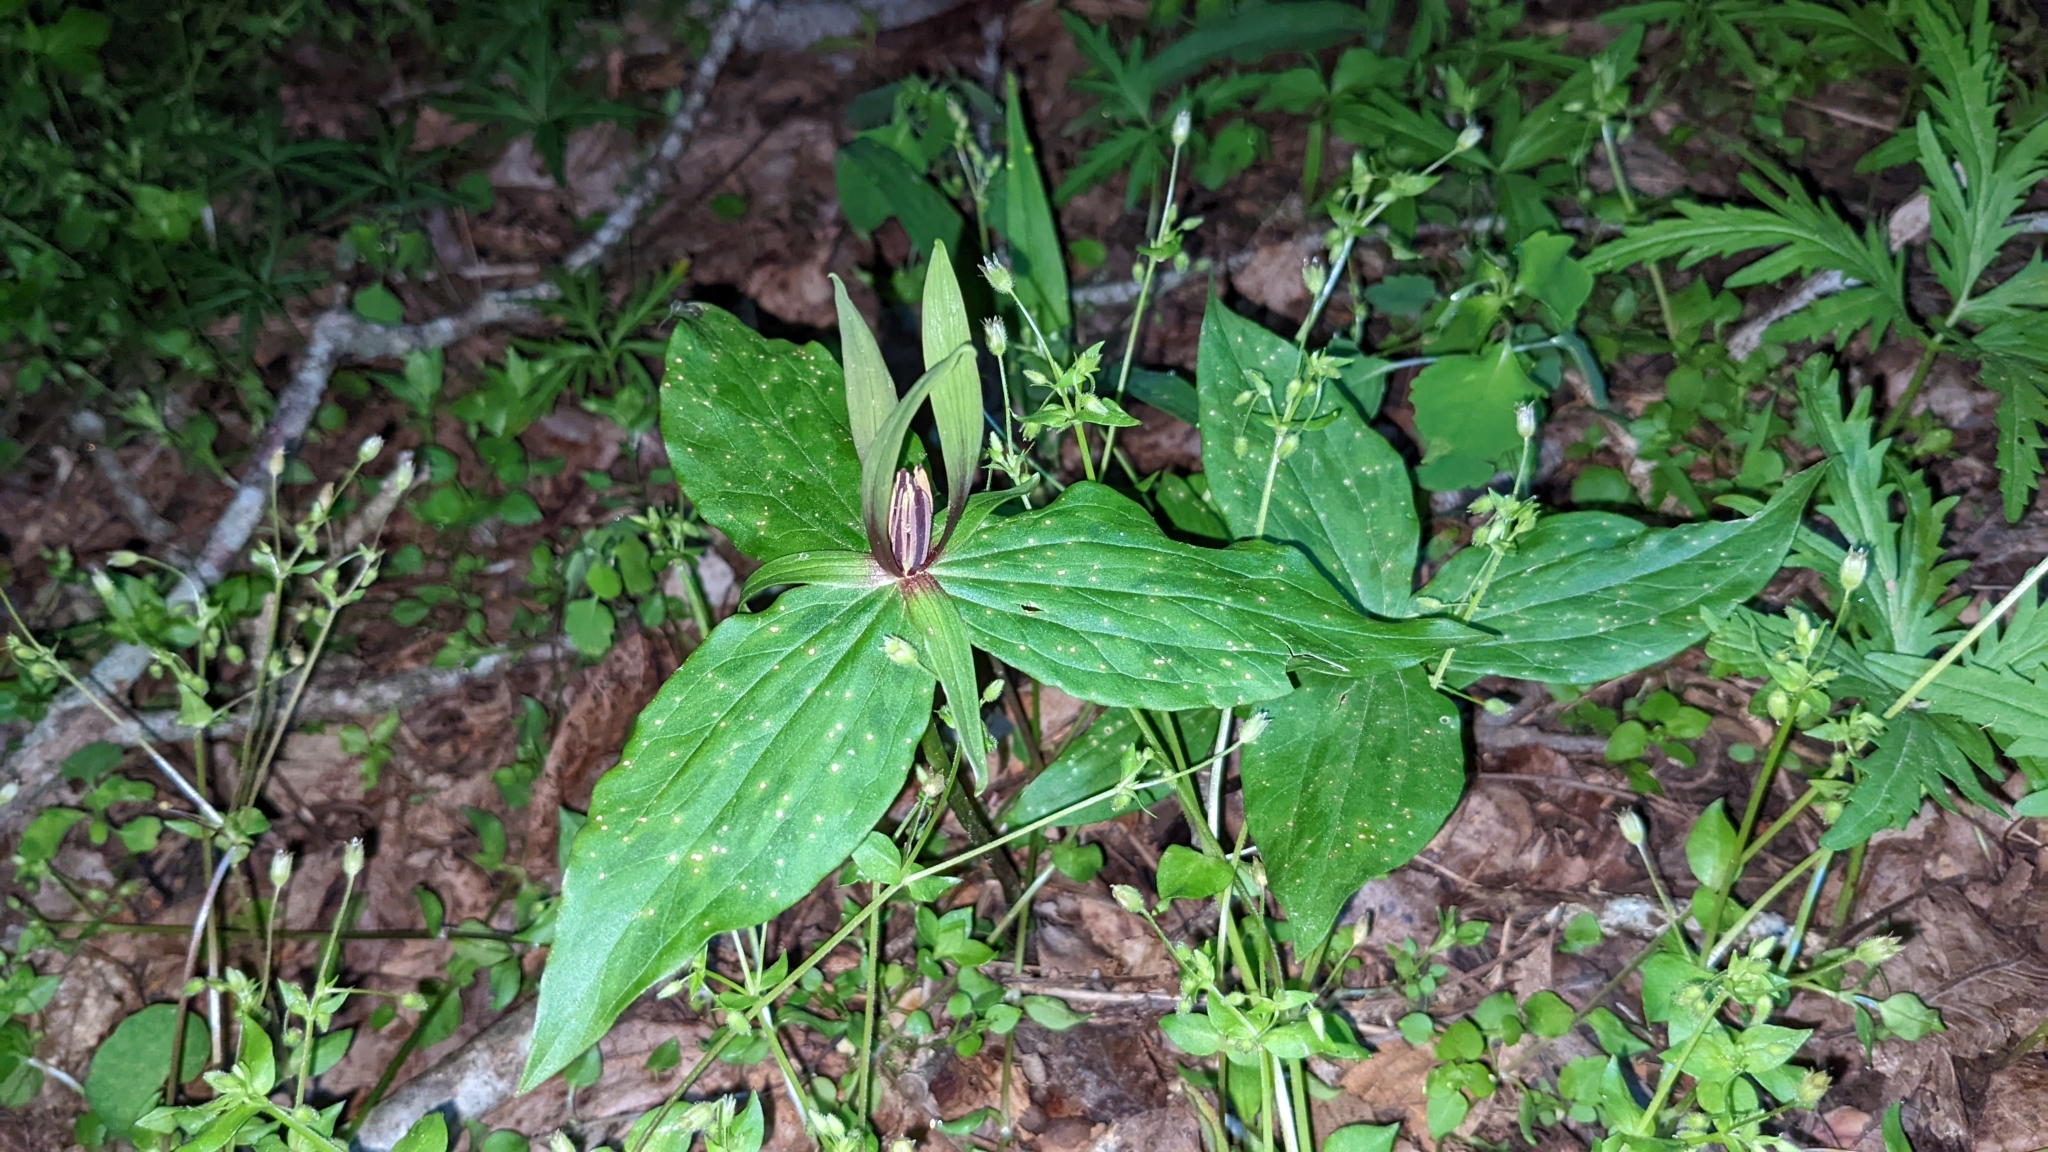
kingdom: Plantae
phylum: Tracheophyta
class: Liliopsida
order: Liliales
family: Melanthiaceae
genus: Trillium
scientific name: Trillium viridescens
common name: Ozark green trillium
